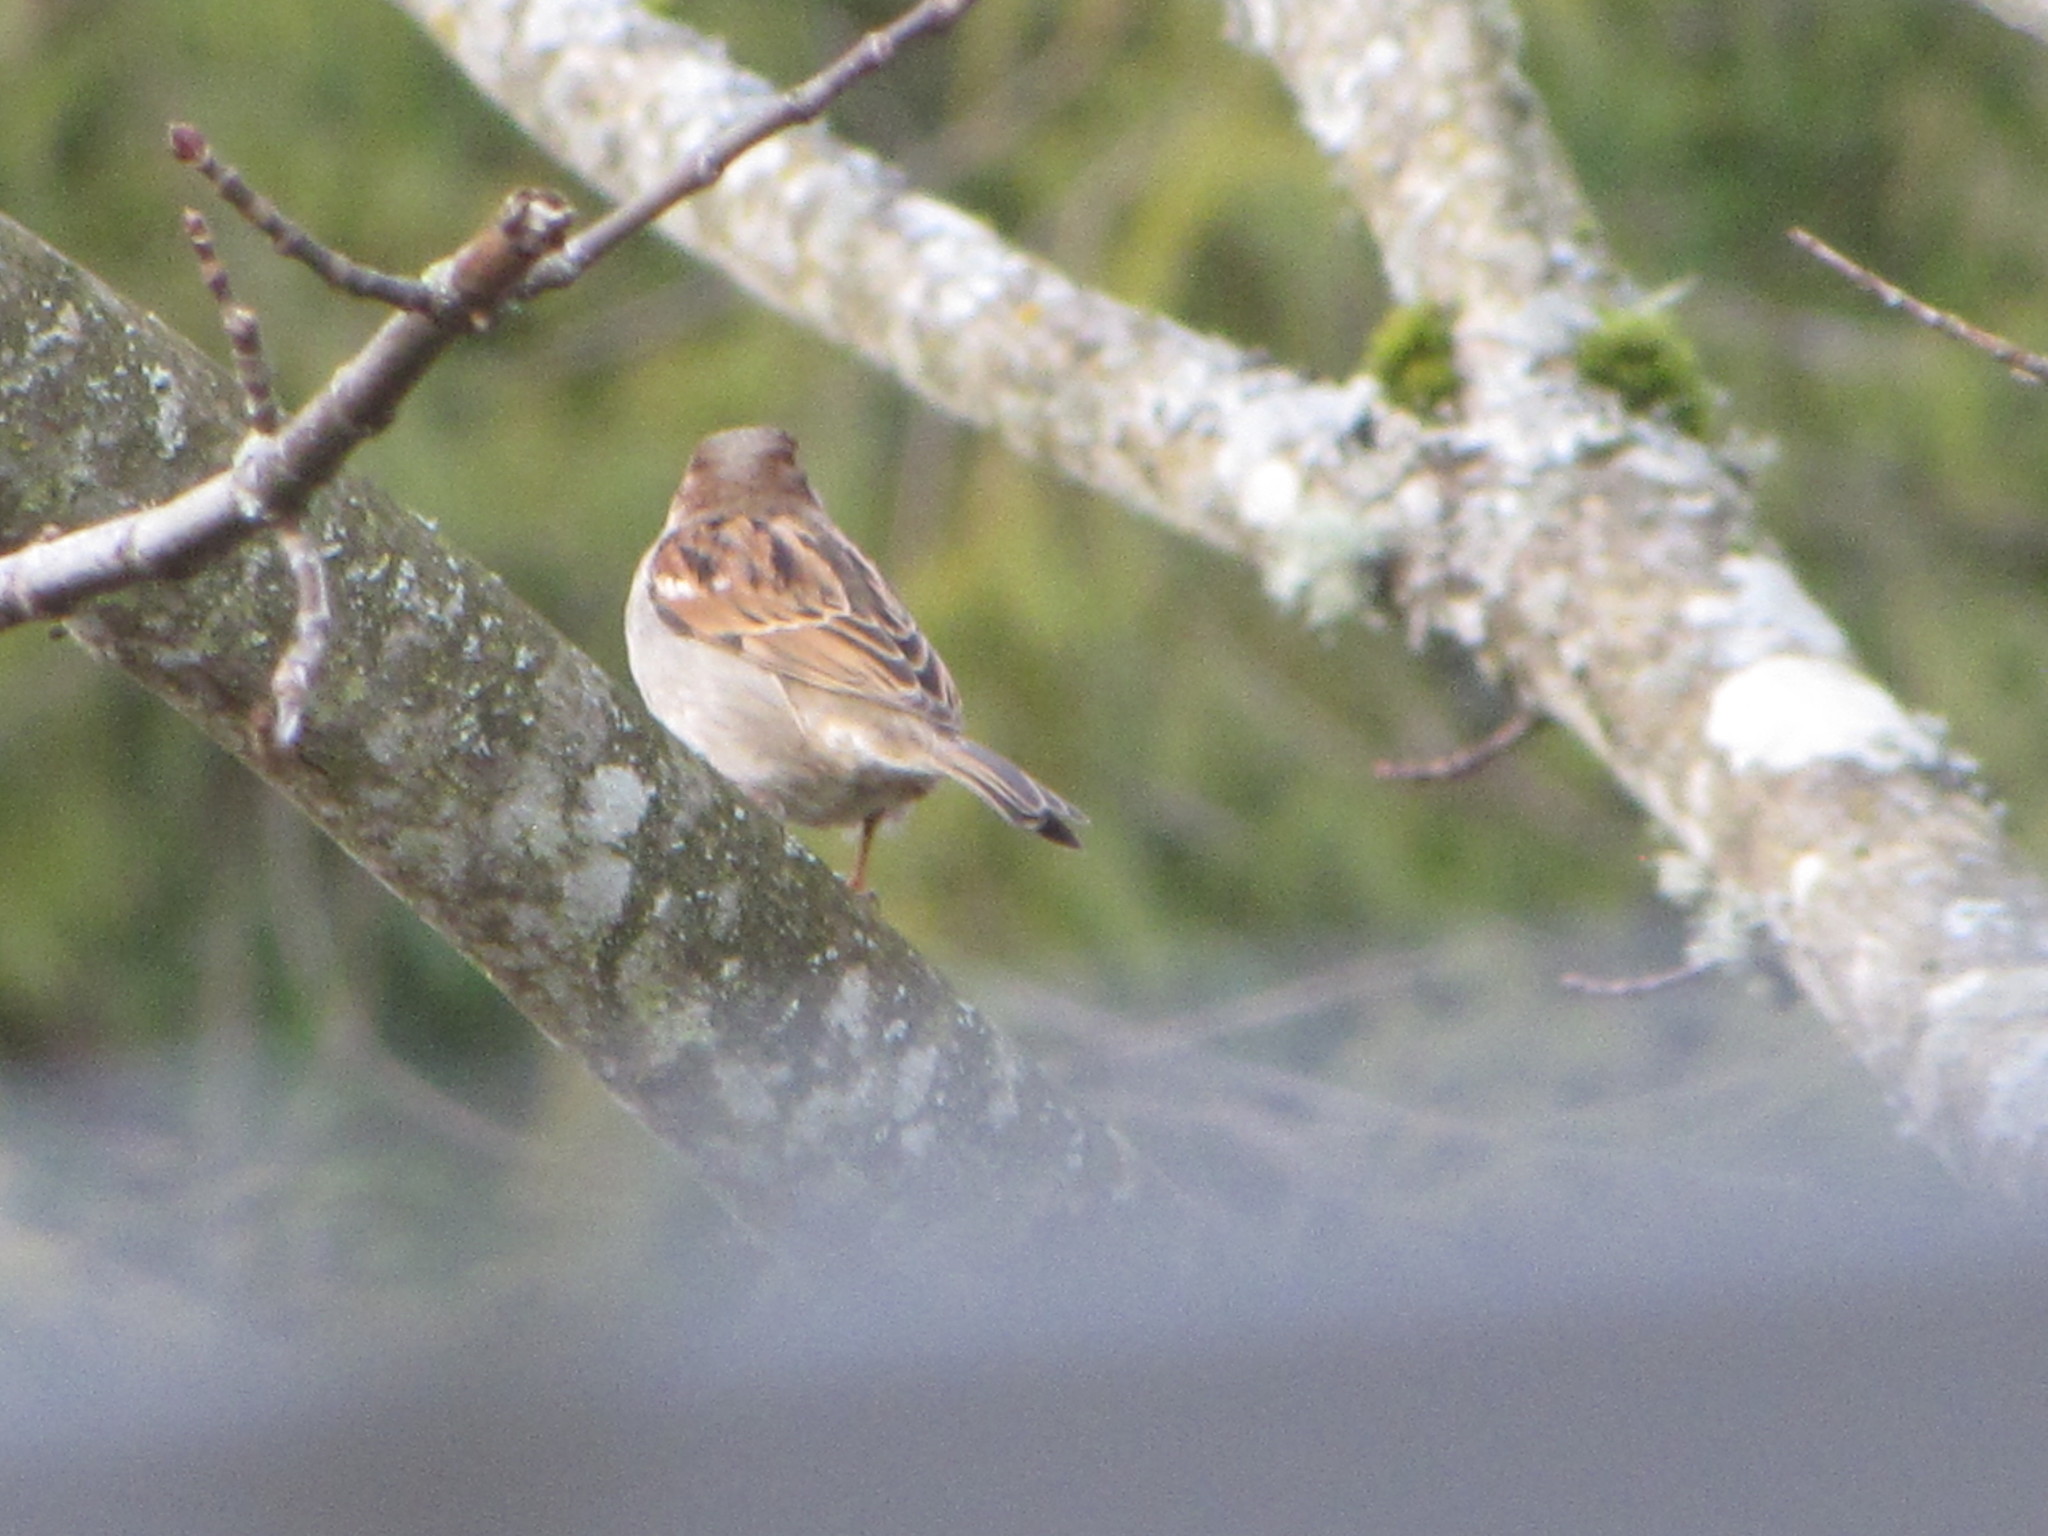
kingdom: Animalia
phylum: Chordata
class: Aves
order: Passeriformes
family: Passeridae
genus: Passer
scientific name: Passer domesticus
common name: House sparrow
